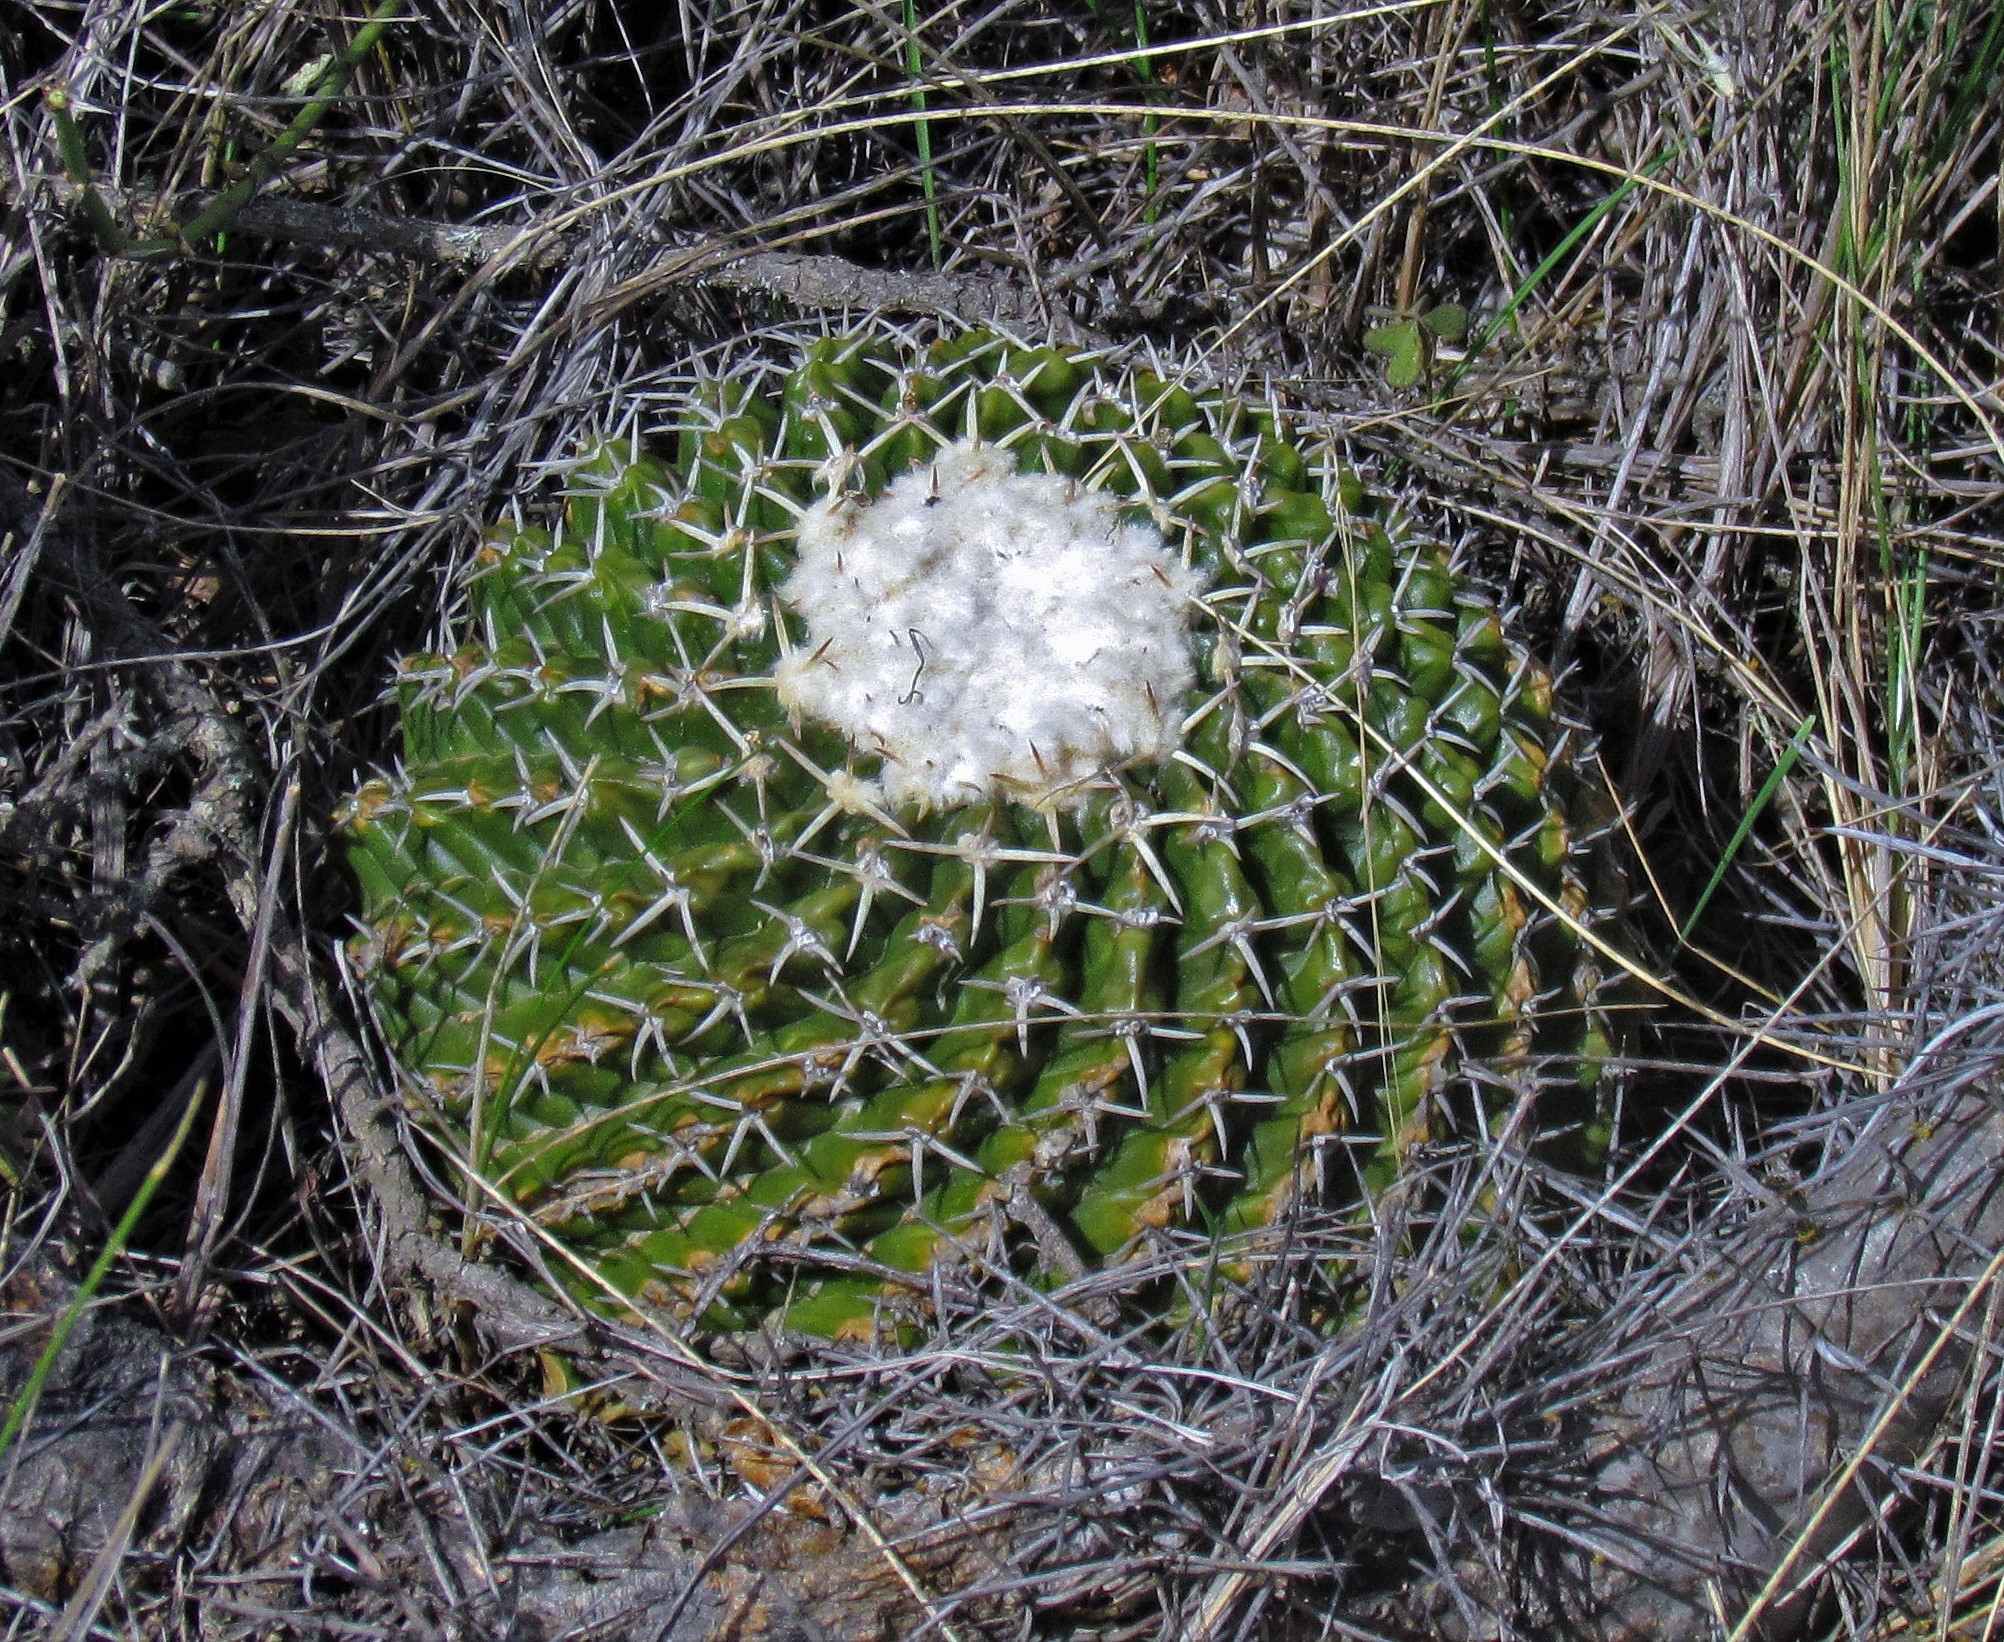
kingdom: Plantae
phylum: Tracheophyta
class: Magnoliopsida
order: Caryophyllales
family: Cactaceae
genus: Parodia
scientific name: Parodia erinacea
